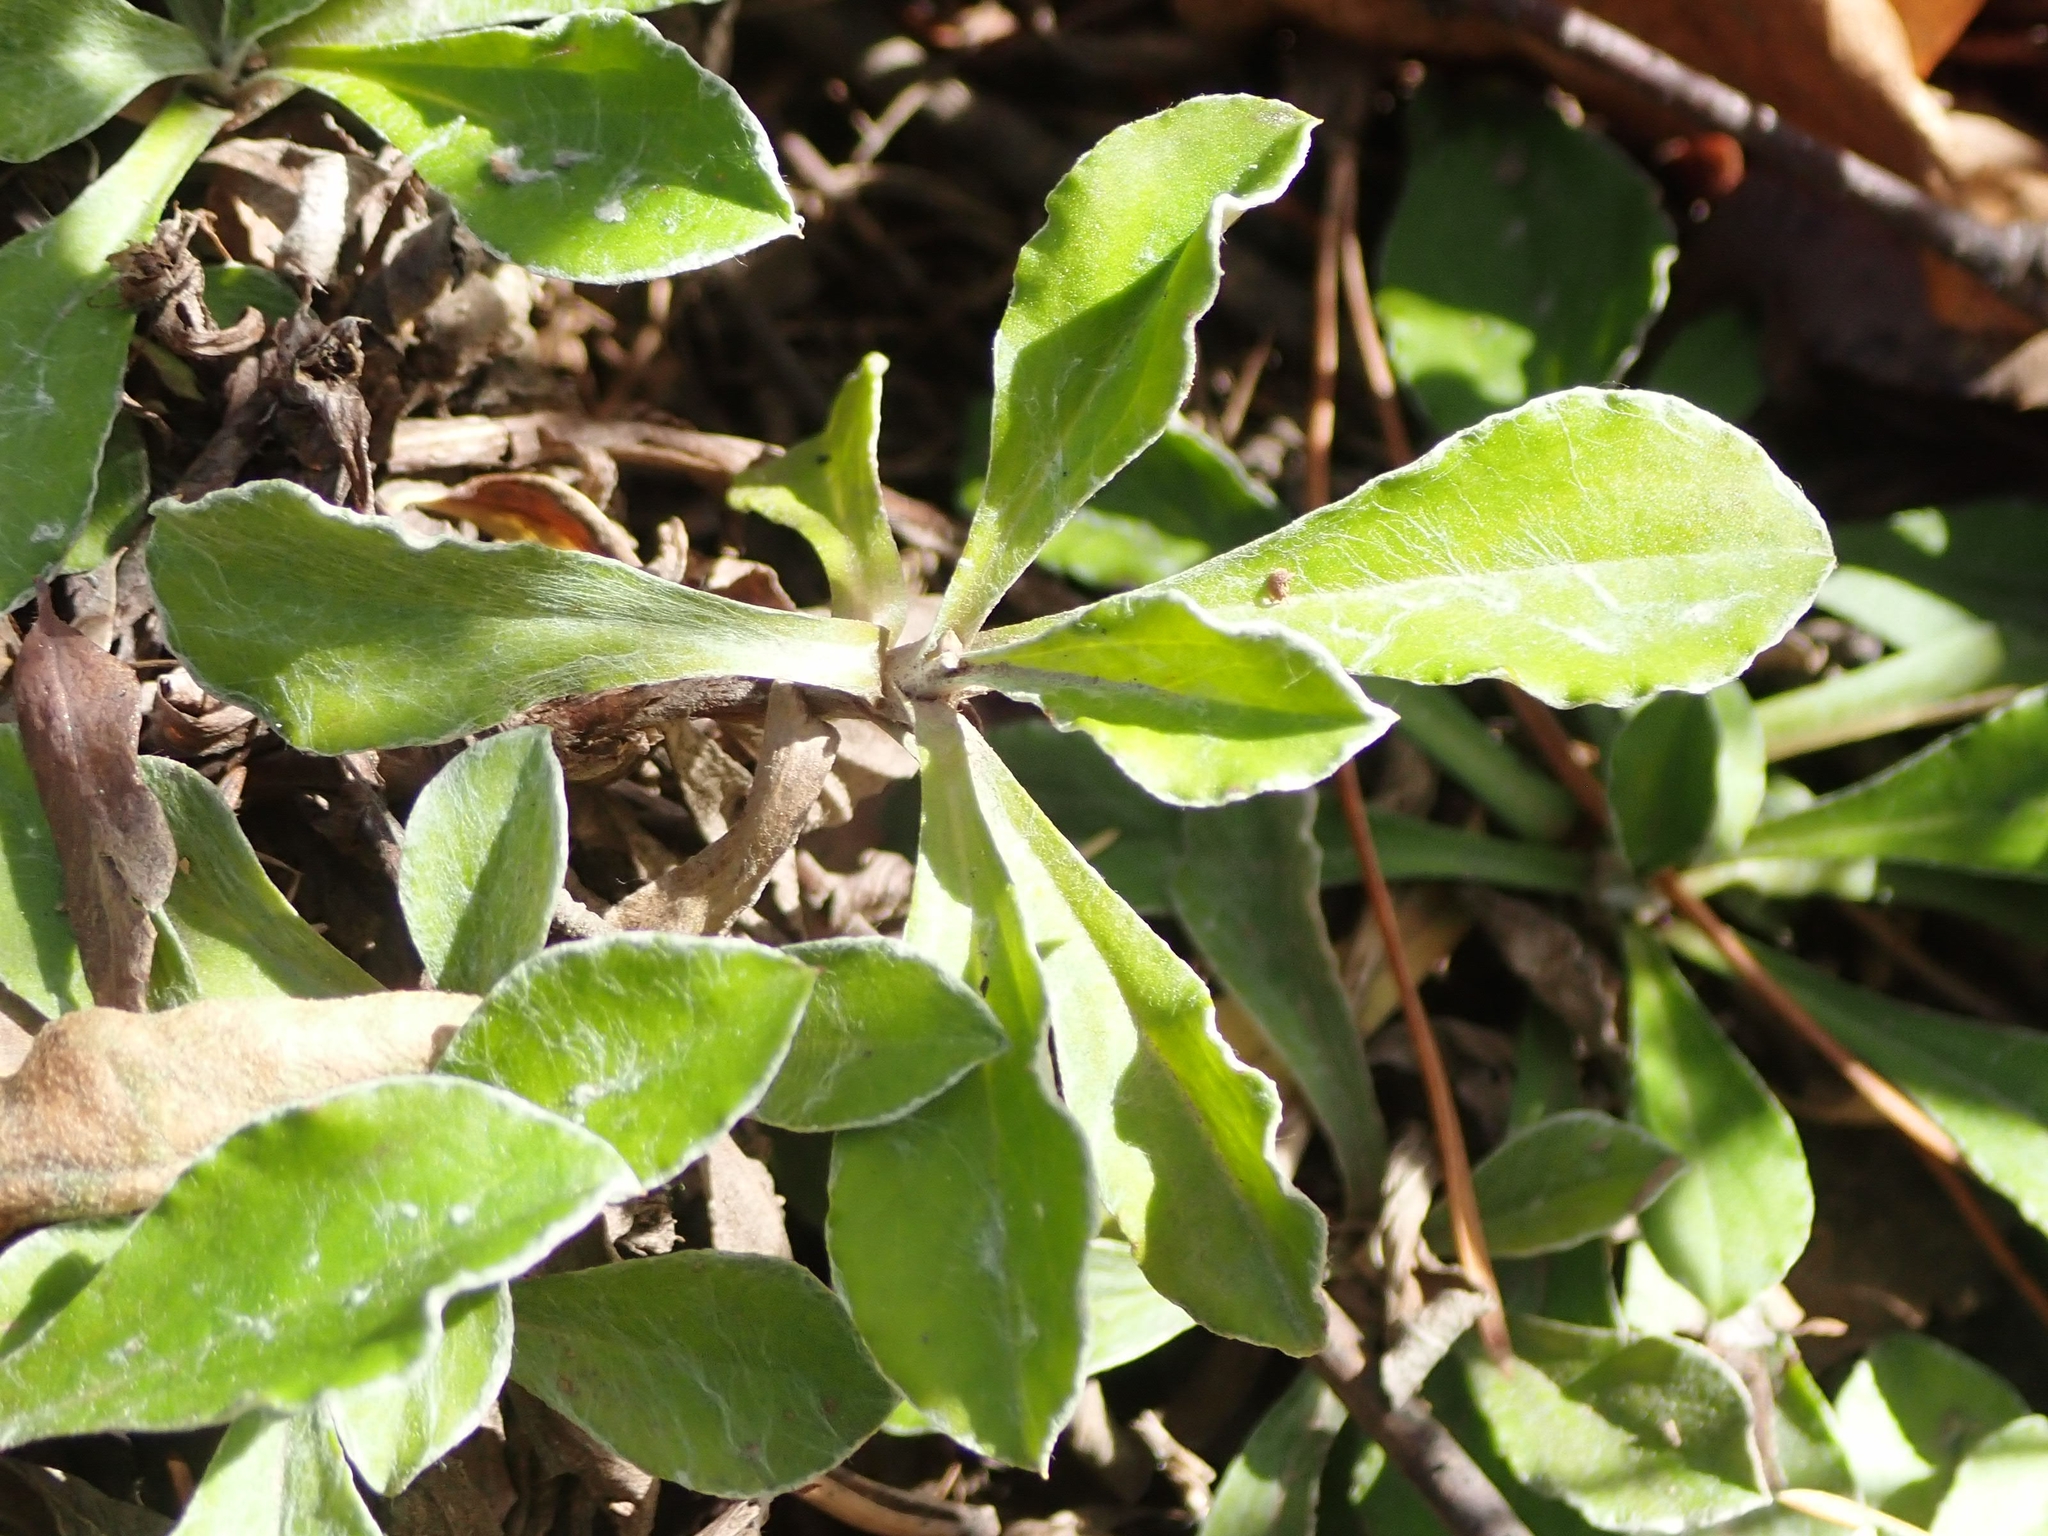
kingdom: Plantae
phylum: Tracheophyta
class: Magnoliopsida
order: Asterales
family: Asteraceae
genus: Antennaria
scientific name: Antennaria howellii
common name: Howell's pussytoes
